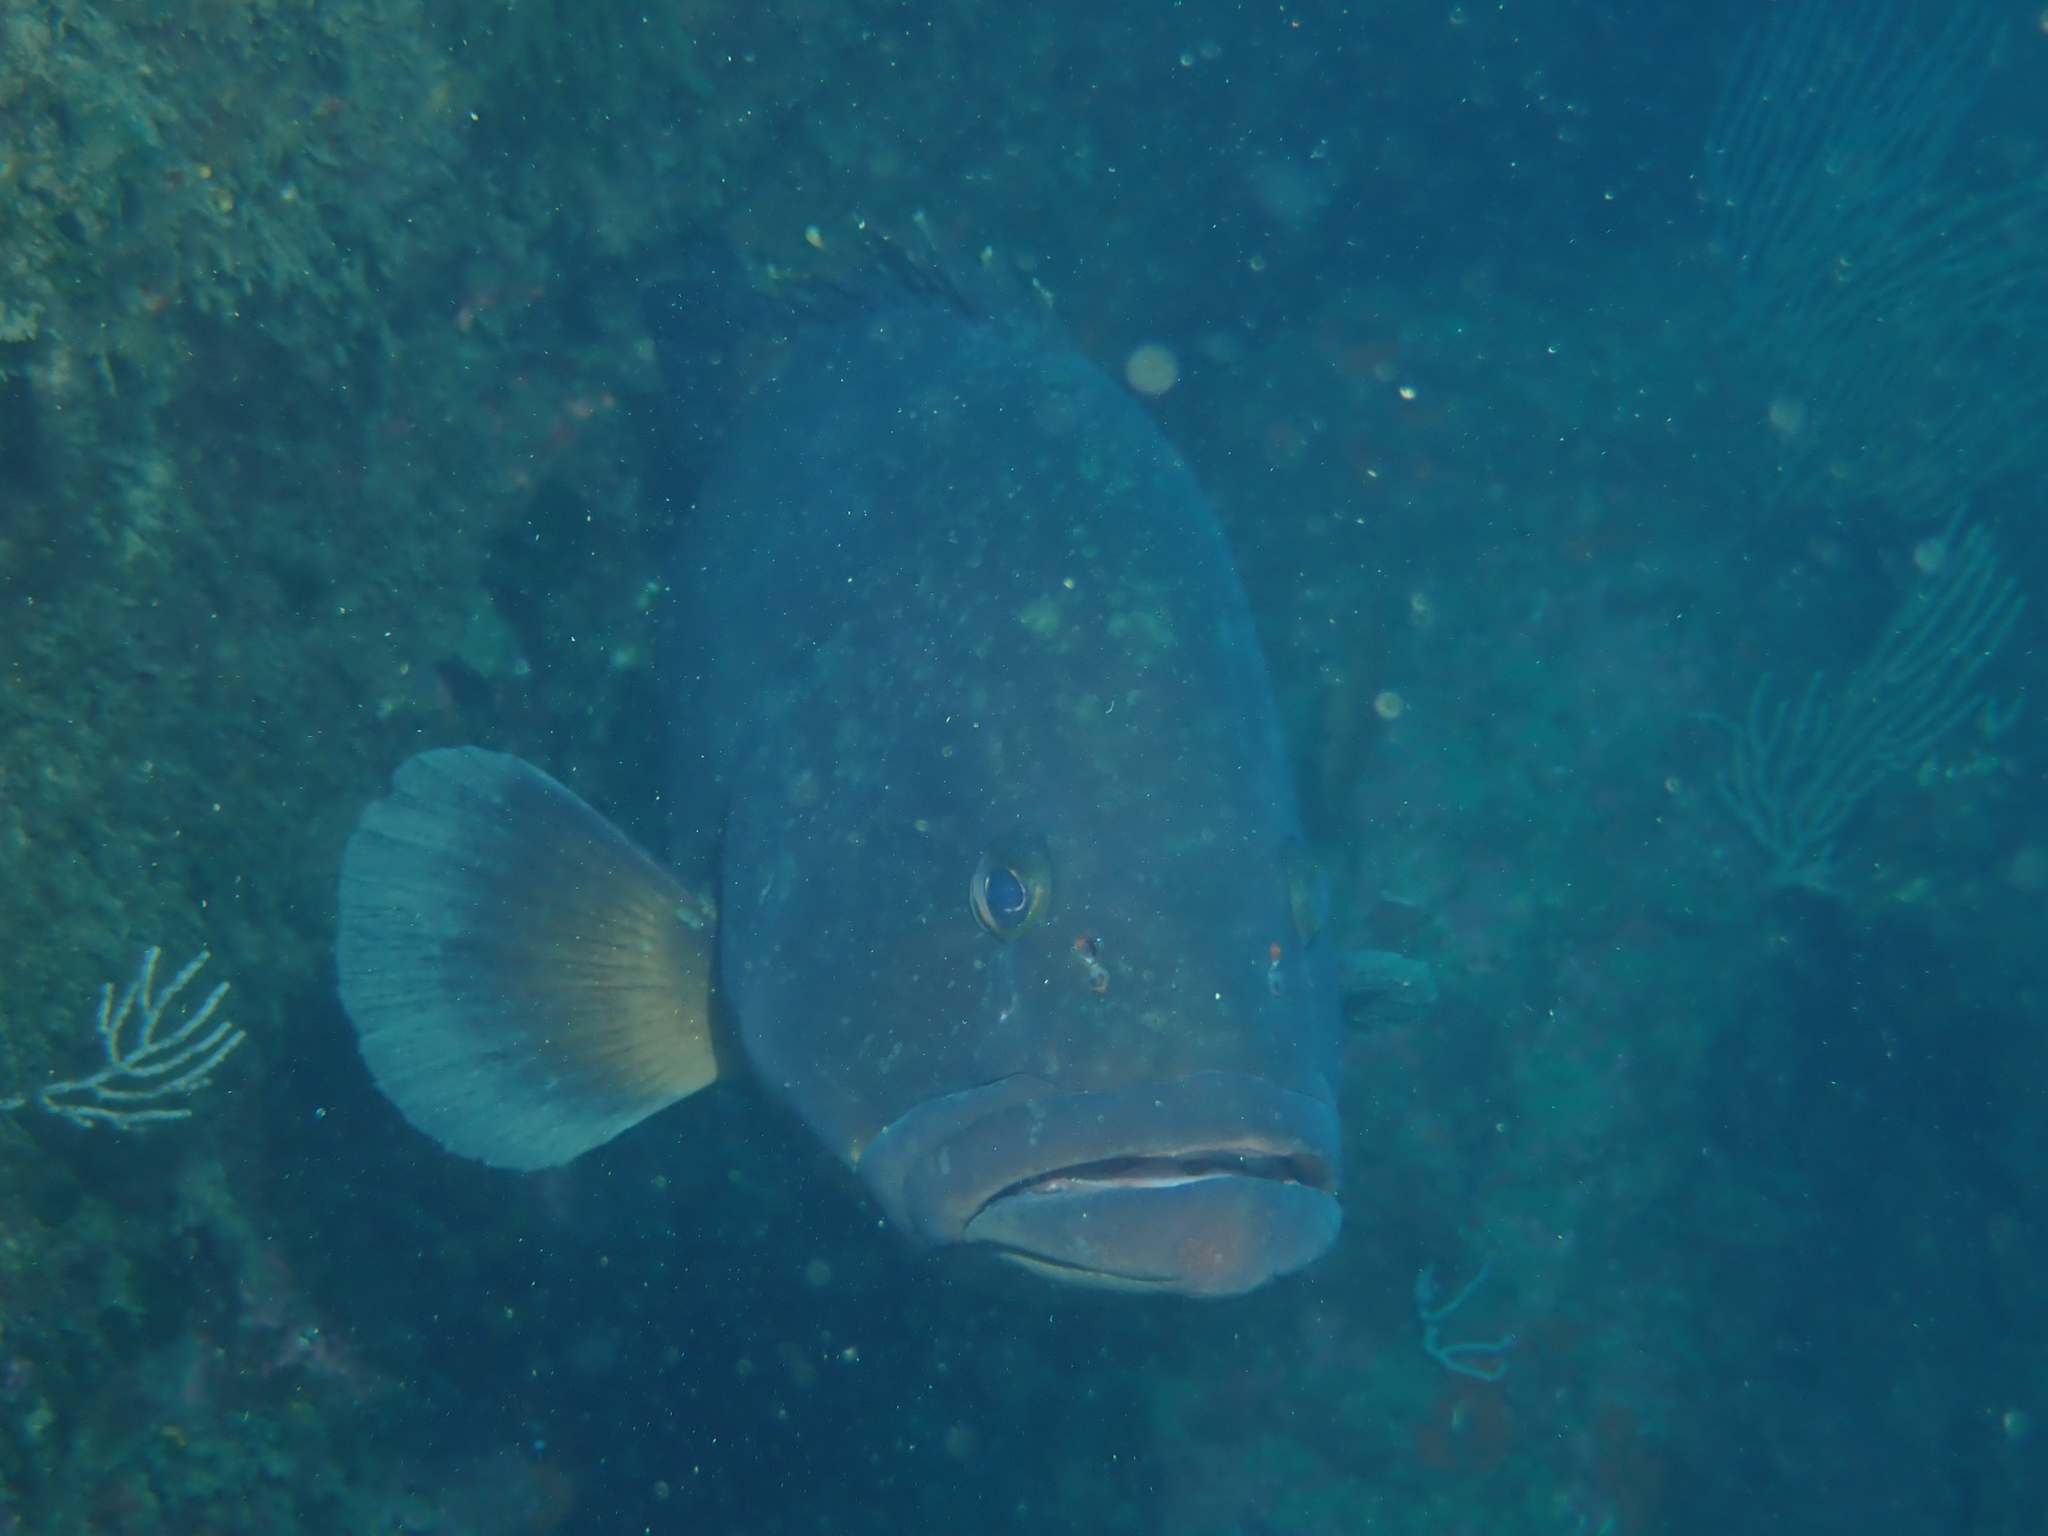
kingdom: Animalia
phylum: Chordata
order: Perciformes
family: Serranidae
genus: Epinephelus
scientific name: Epinephelus marginatus
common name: Dusky grouper
